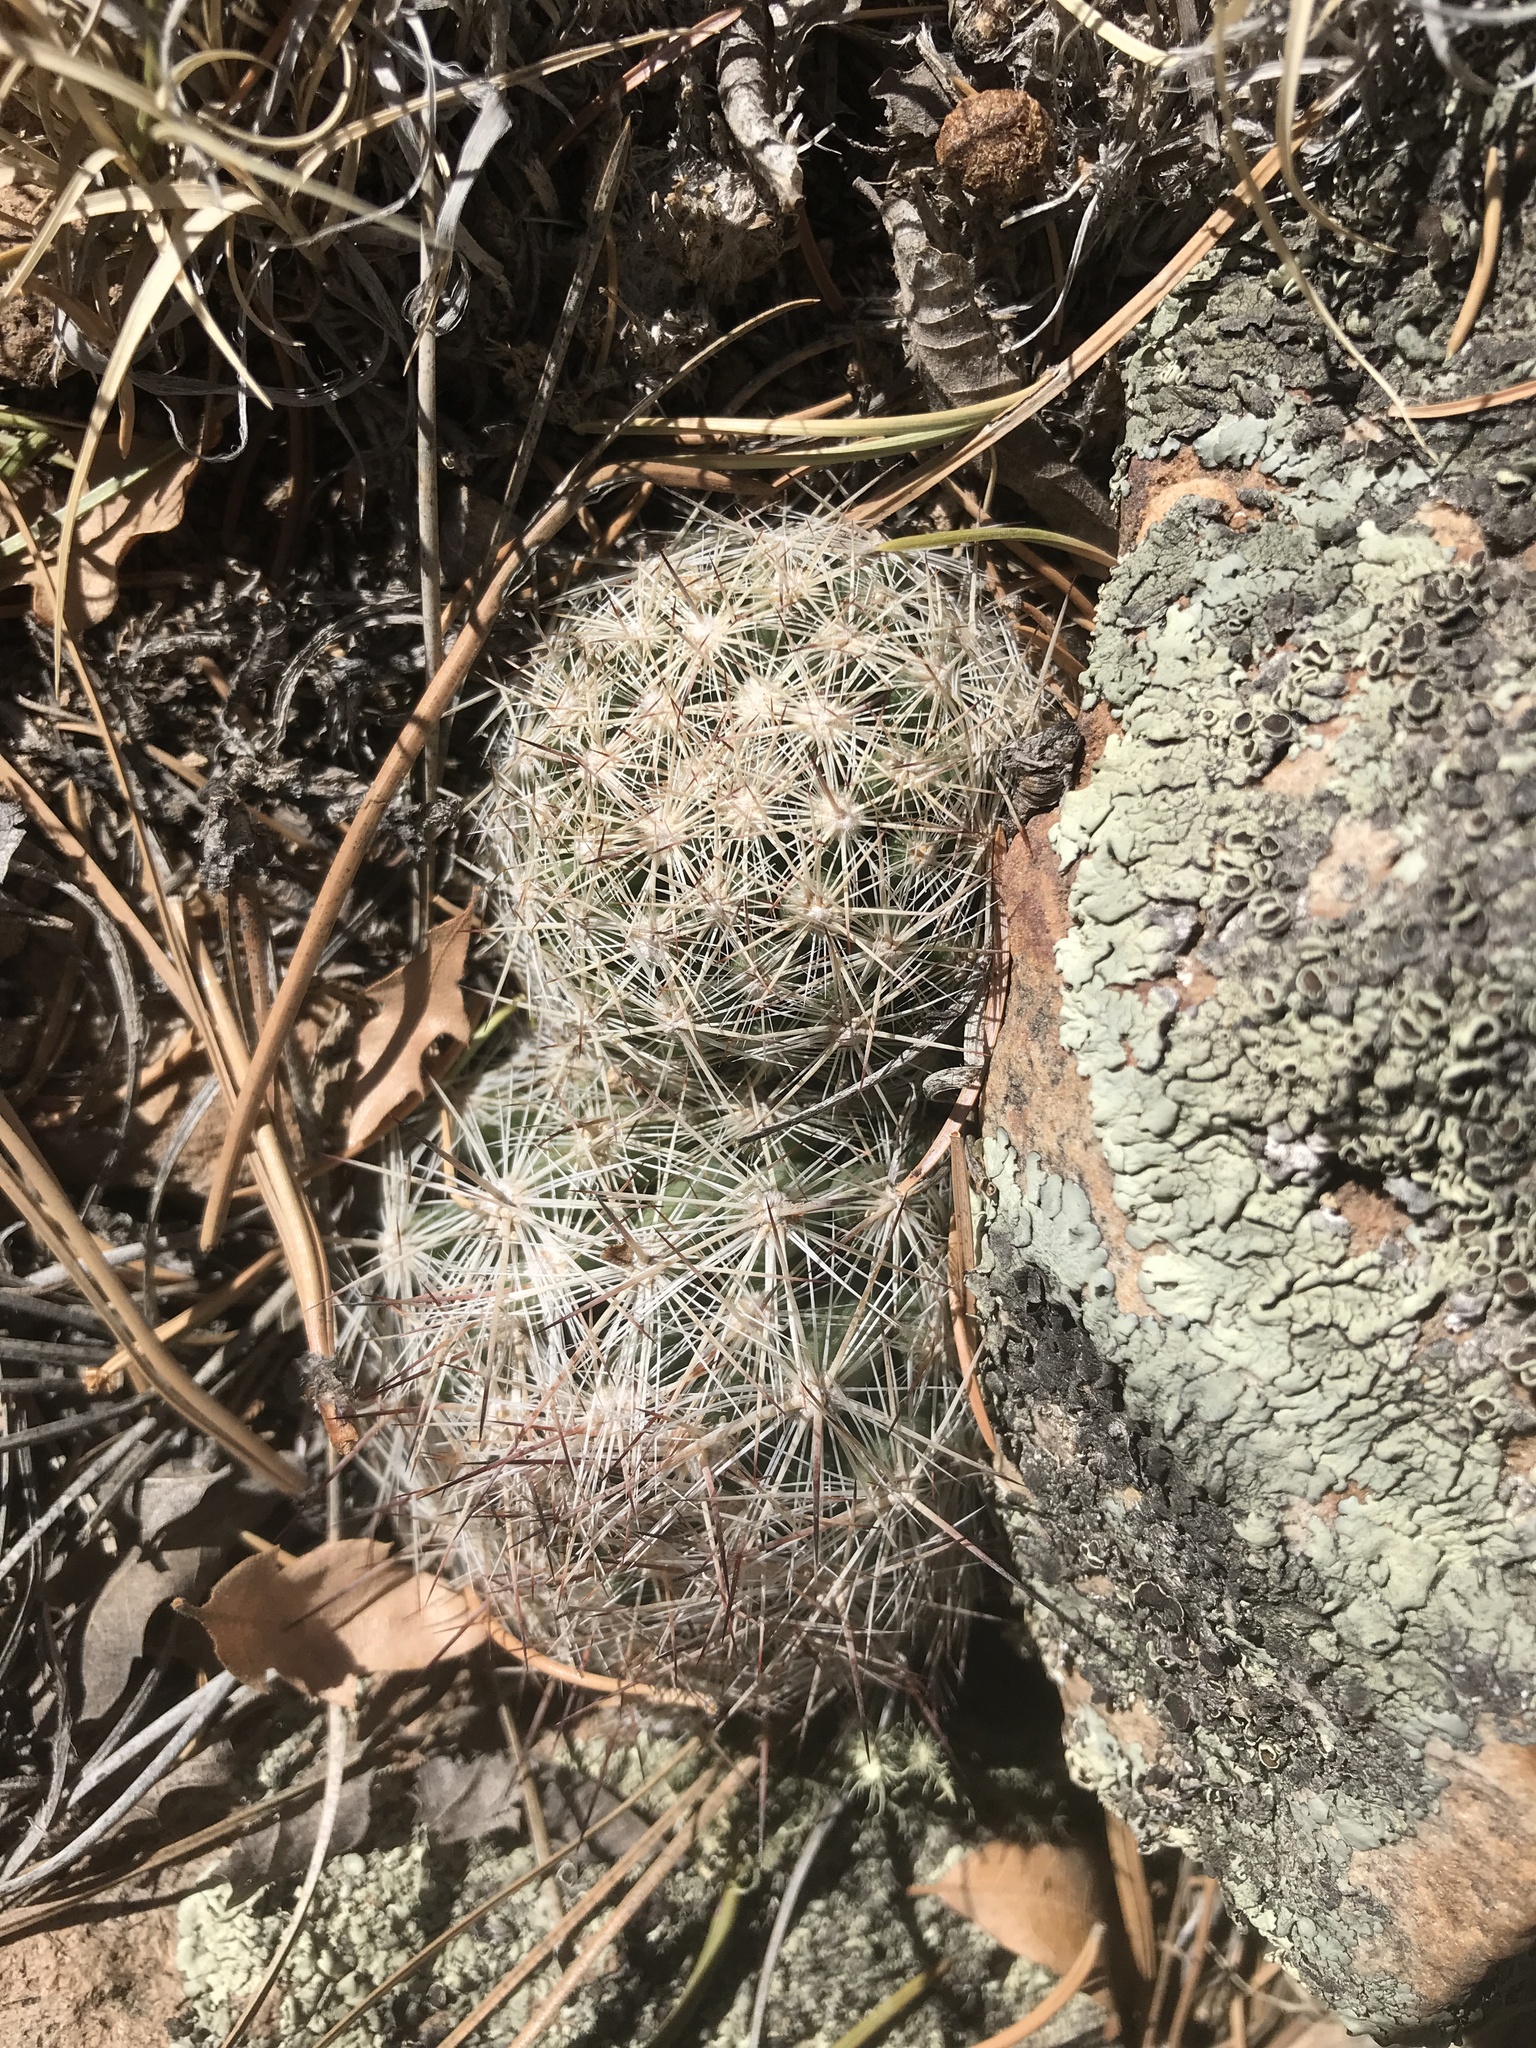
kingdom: Plantae
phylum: Tracheophyta
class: Magnoliopsida
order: Caryophyllales
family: Cactaceae
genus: Pelecyphora
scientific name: Pelecyphora vivipara
